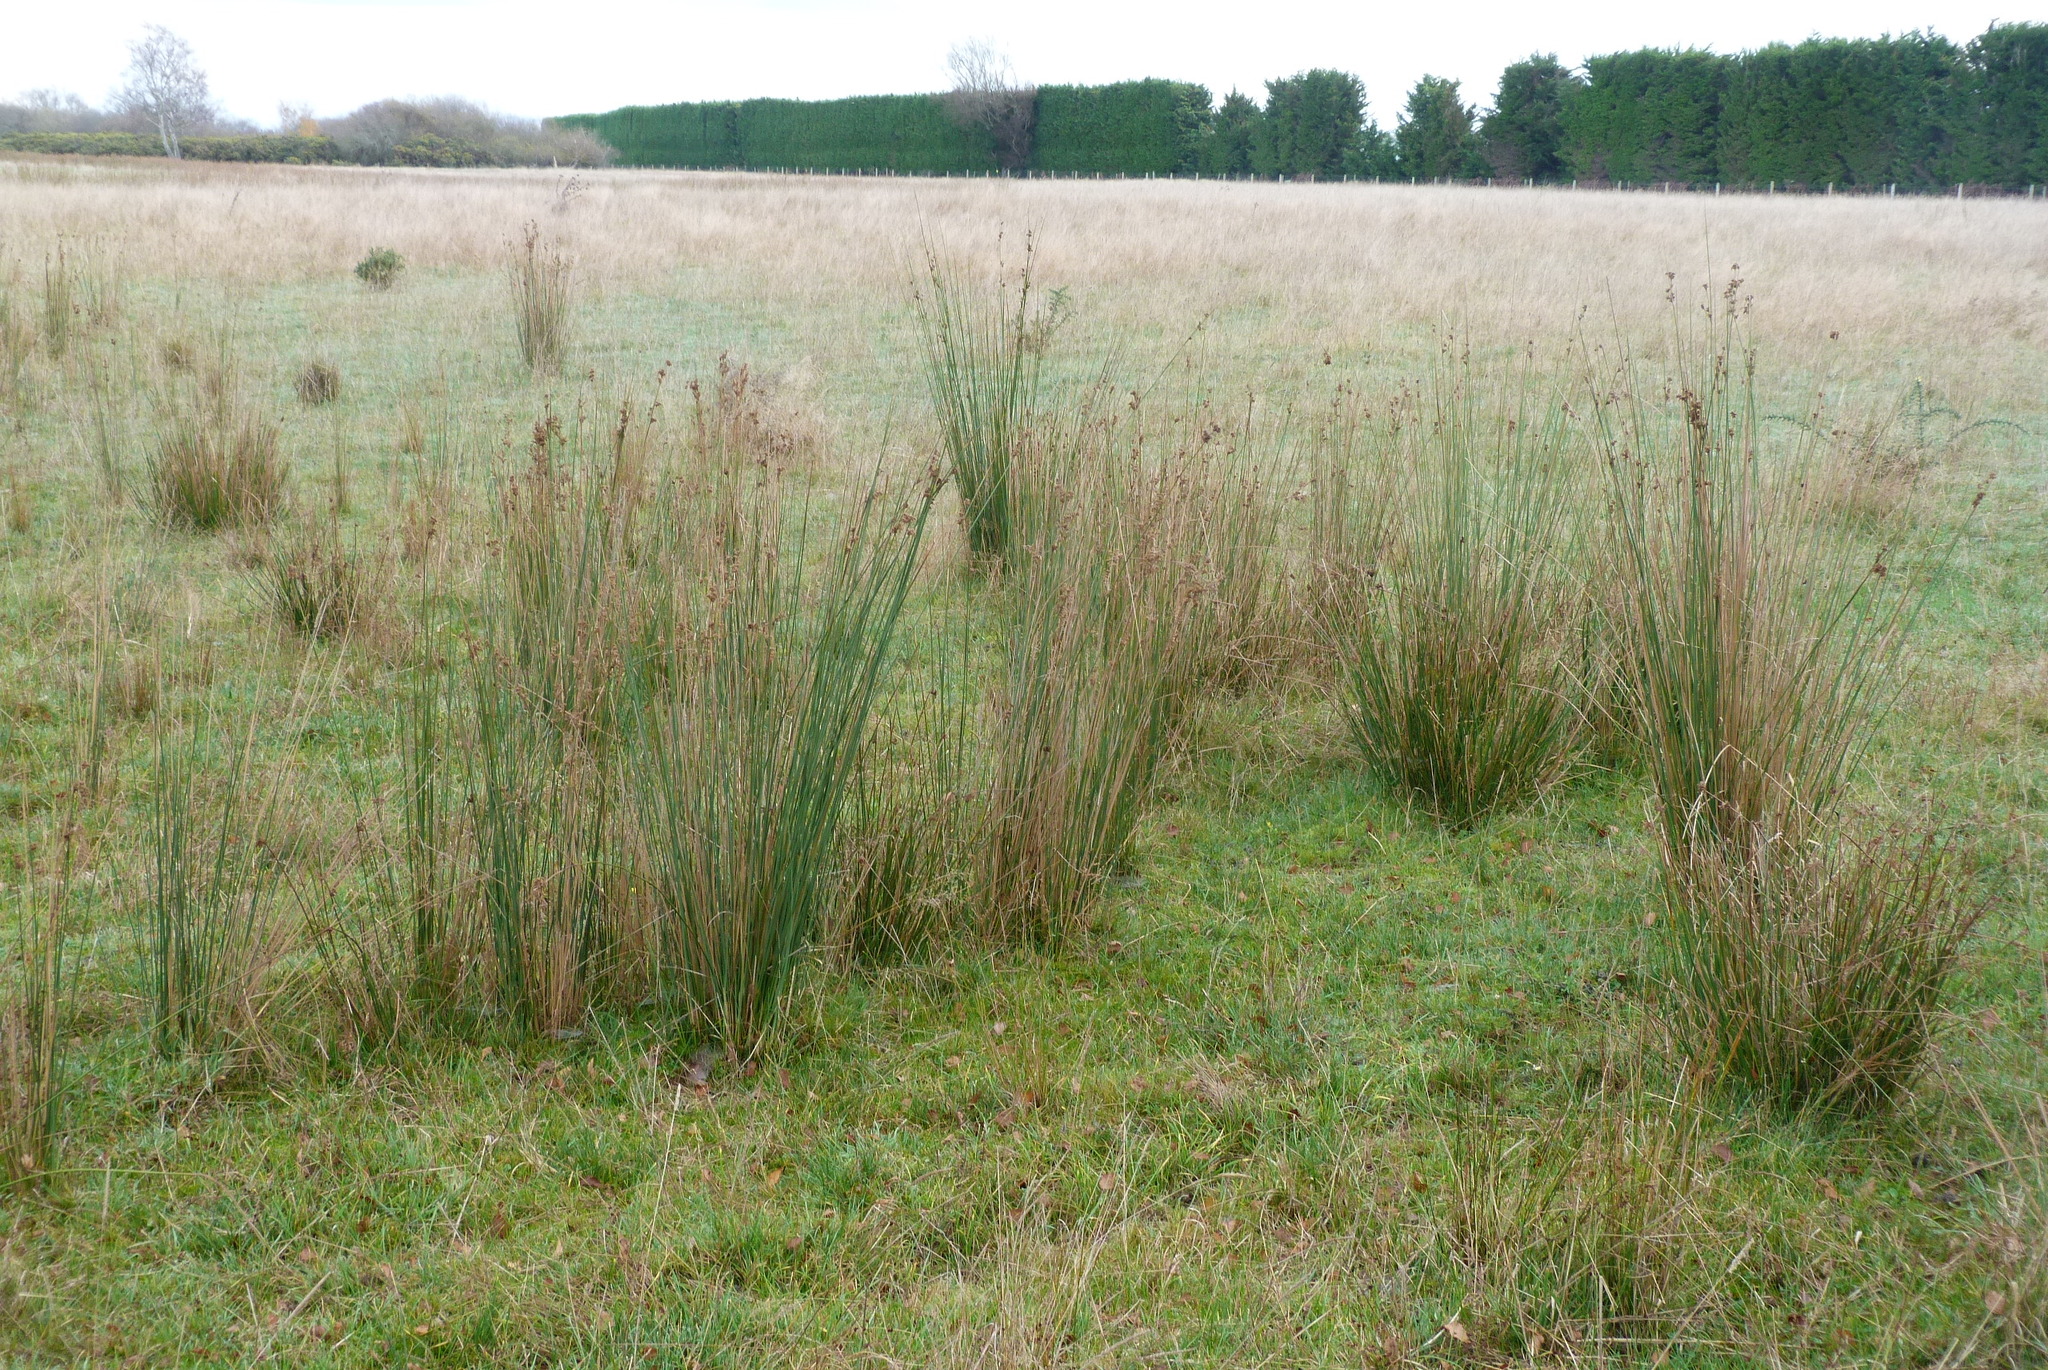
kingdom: Plantae
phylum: Tracheophyta
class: Liliopsida
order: Poales
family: Juncaceae
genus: Juncus
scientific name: Juncus sarophorus
